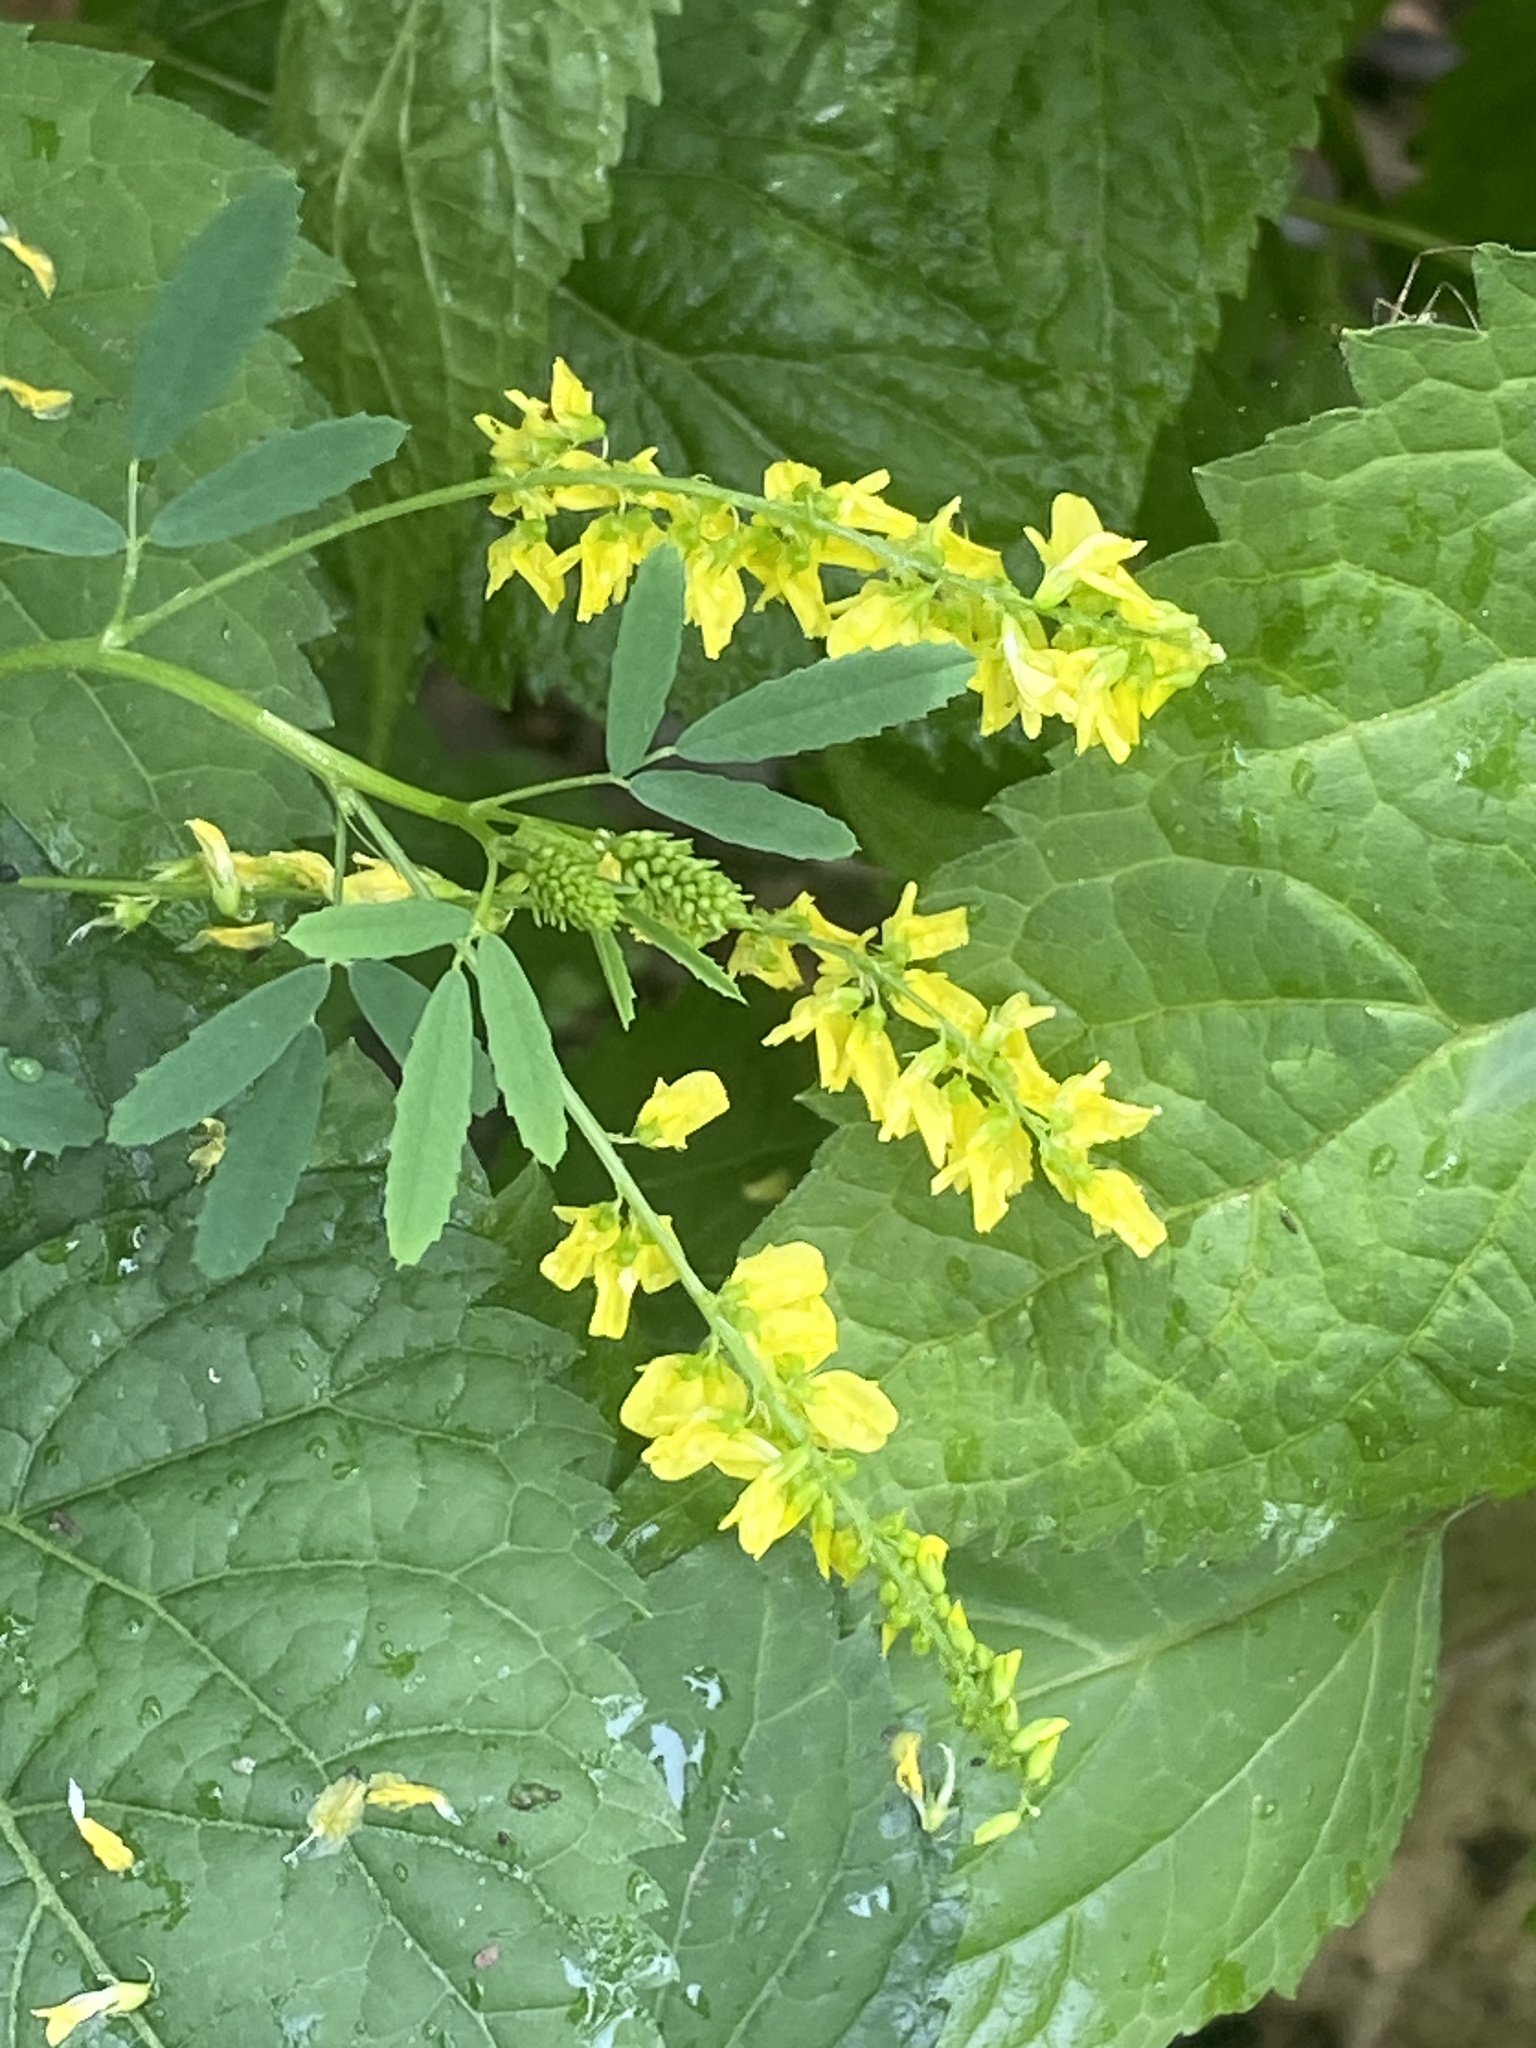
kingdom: Plantae
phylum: Tracheophyta
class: Magnoliopsida
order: Fabales
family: Fabaceae
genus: Melilotus
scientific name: Melilotus officinalis
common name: Sweetclover
